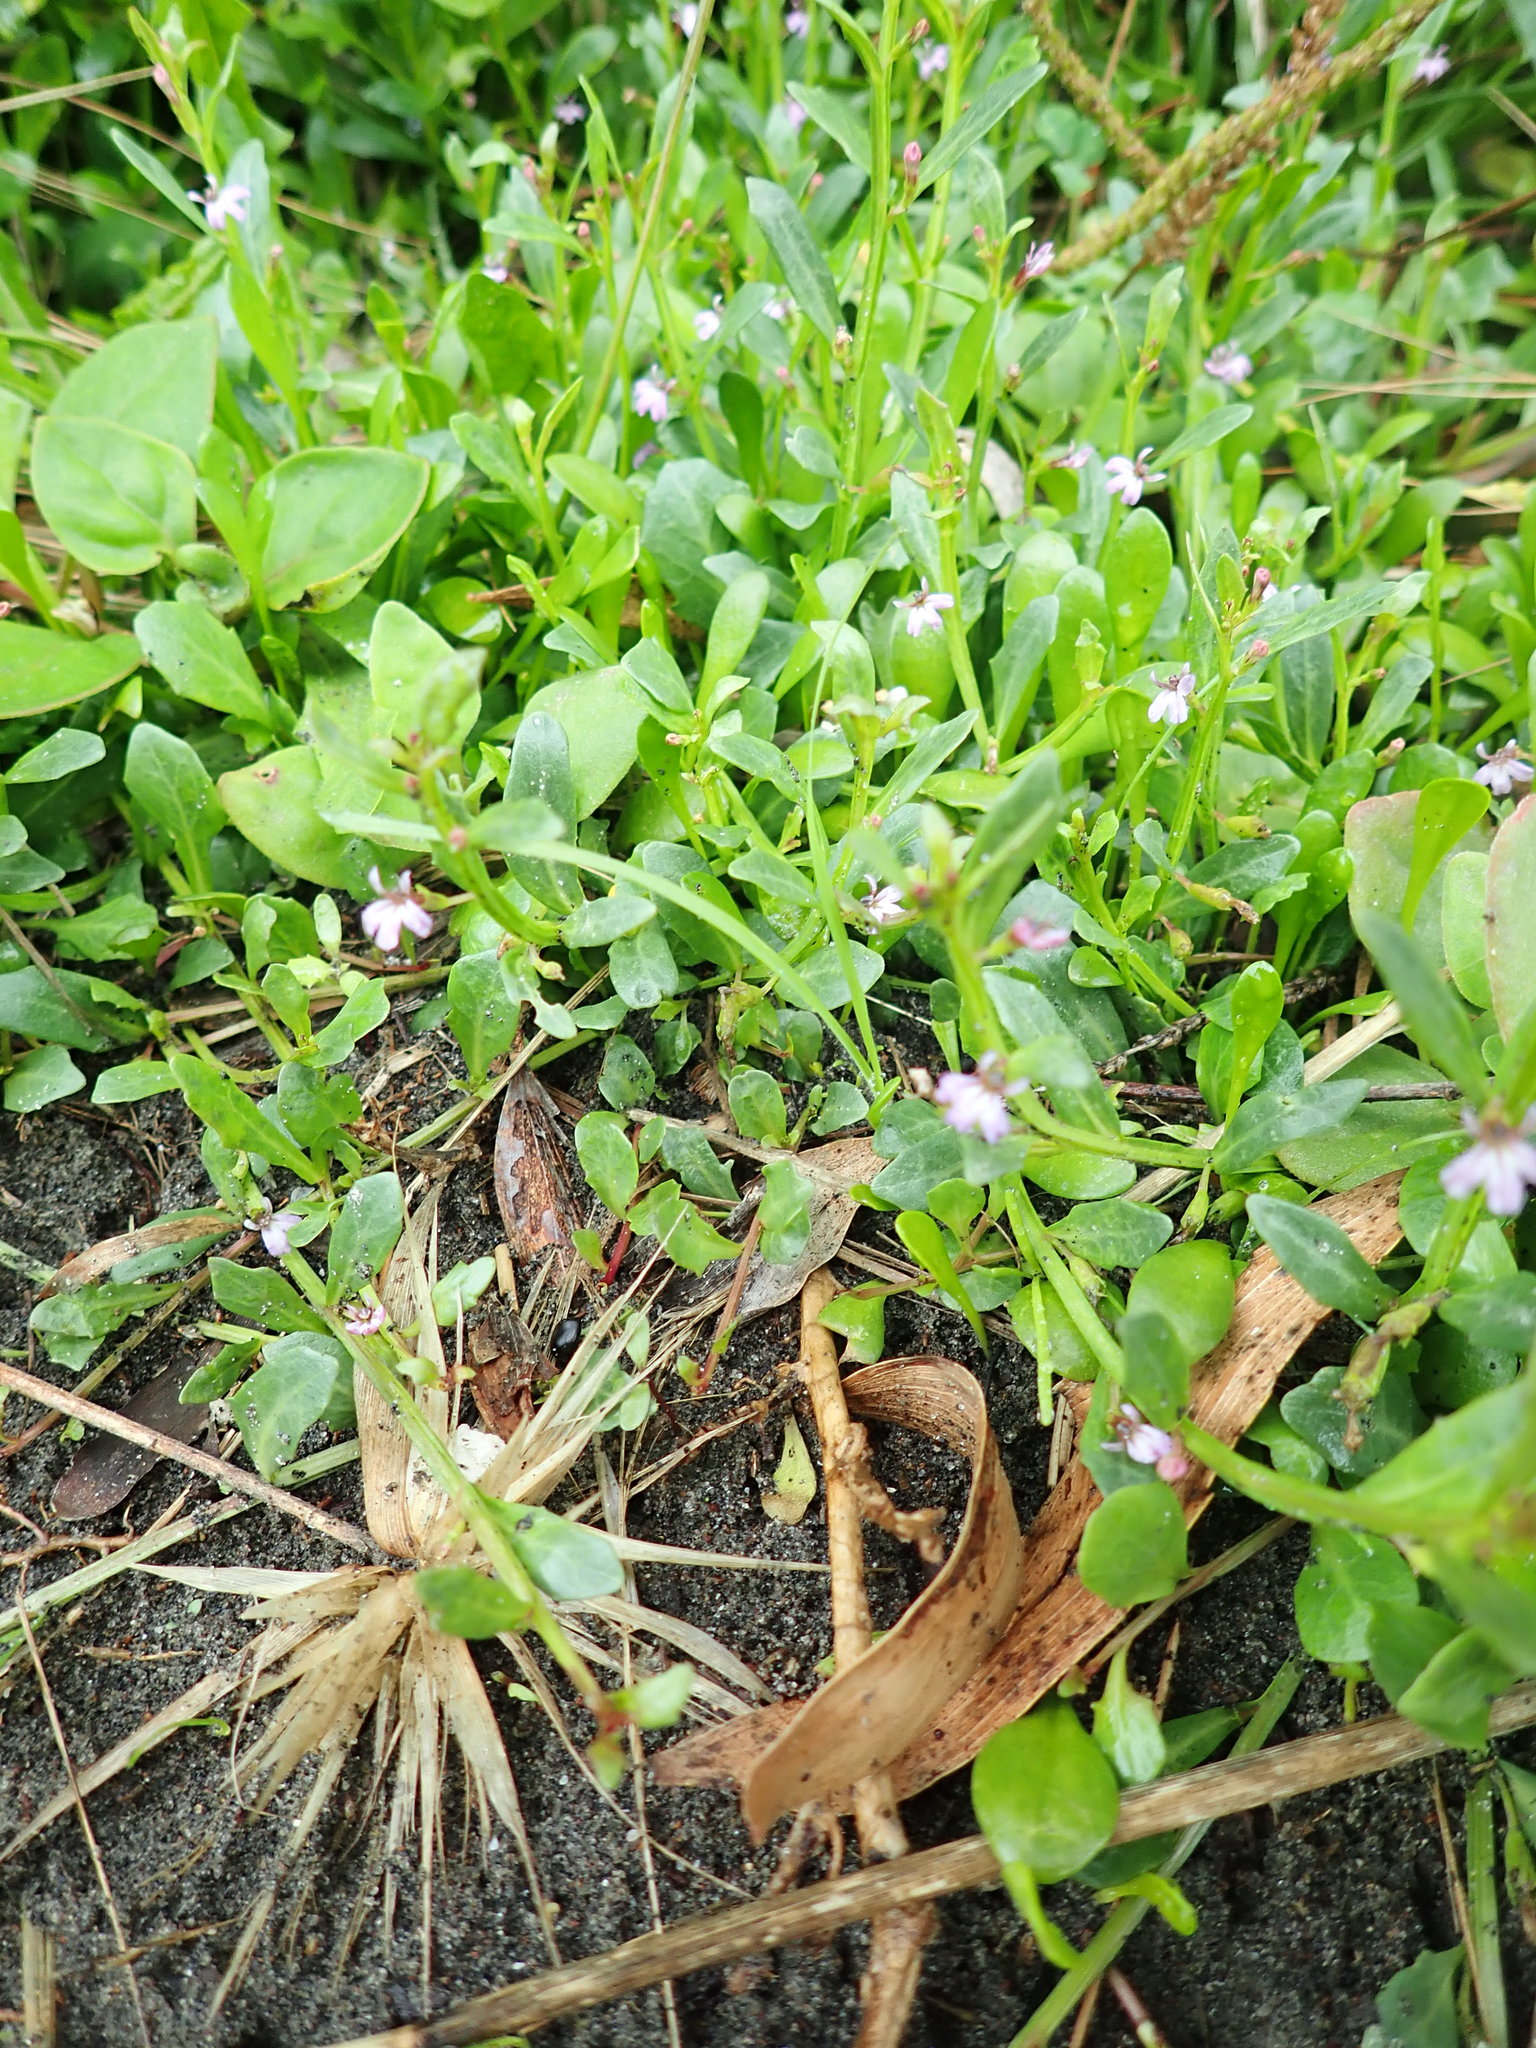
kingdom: Plantae
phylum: Tracheophyta
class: Magnoliopsida
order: Asterales
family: Campanulaceae
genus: Lobelia
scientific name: Lobelia anceps
